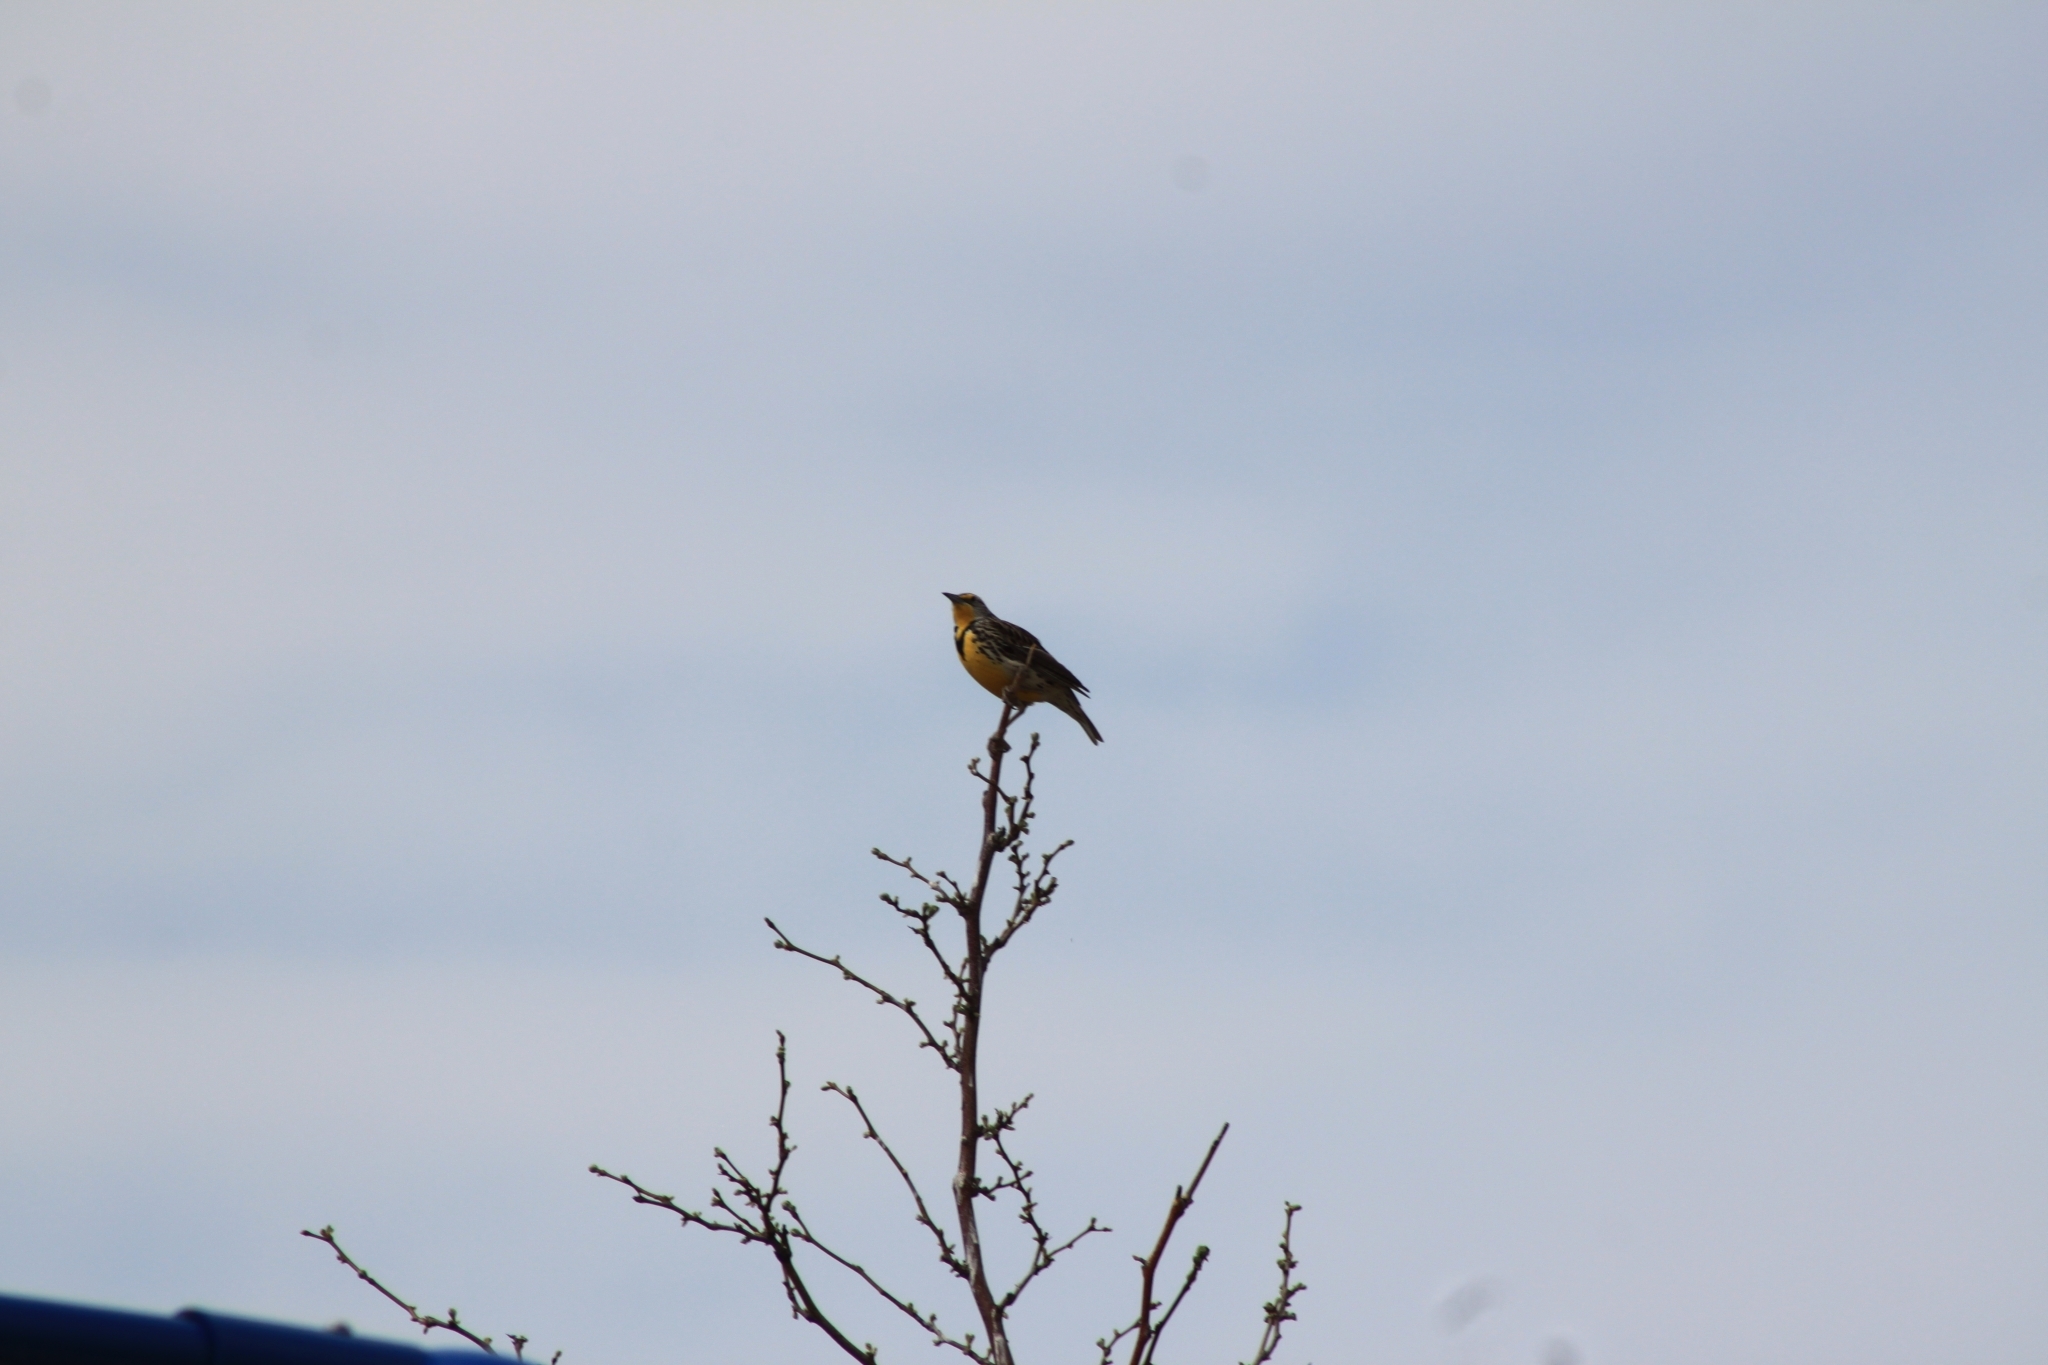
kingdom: Animalia
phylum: Chordata
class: Aves
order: Passeriformes
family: Icteridae
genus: Sturnella
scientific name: Sturnella neglecta
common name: Western meadowlark
